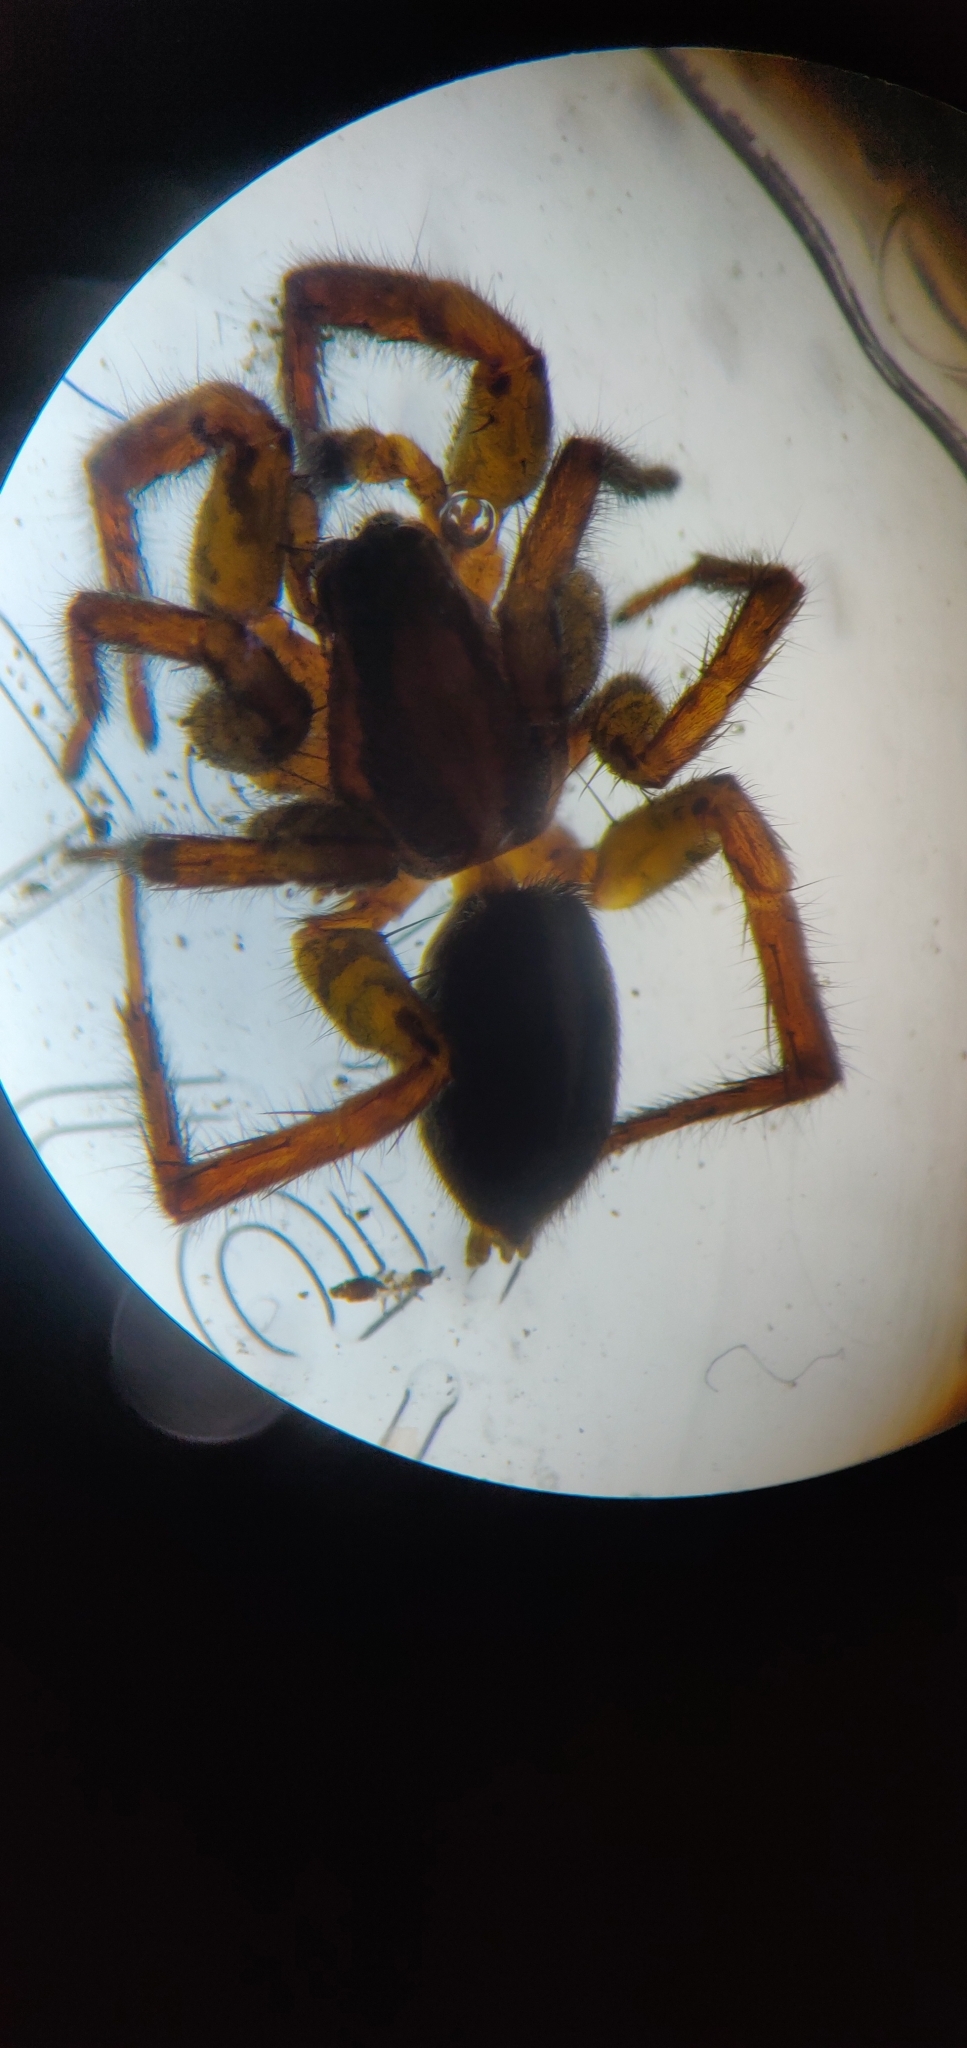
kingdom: Animalia
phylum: Arthropoda
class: Arachnida
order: Araneae
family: Lycosidae
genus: Anoteropsis
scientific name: Anoteropsis hilaris
